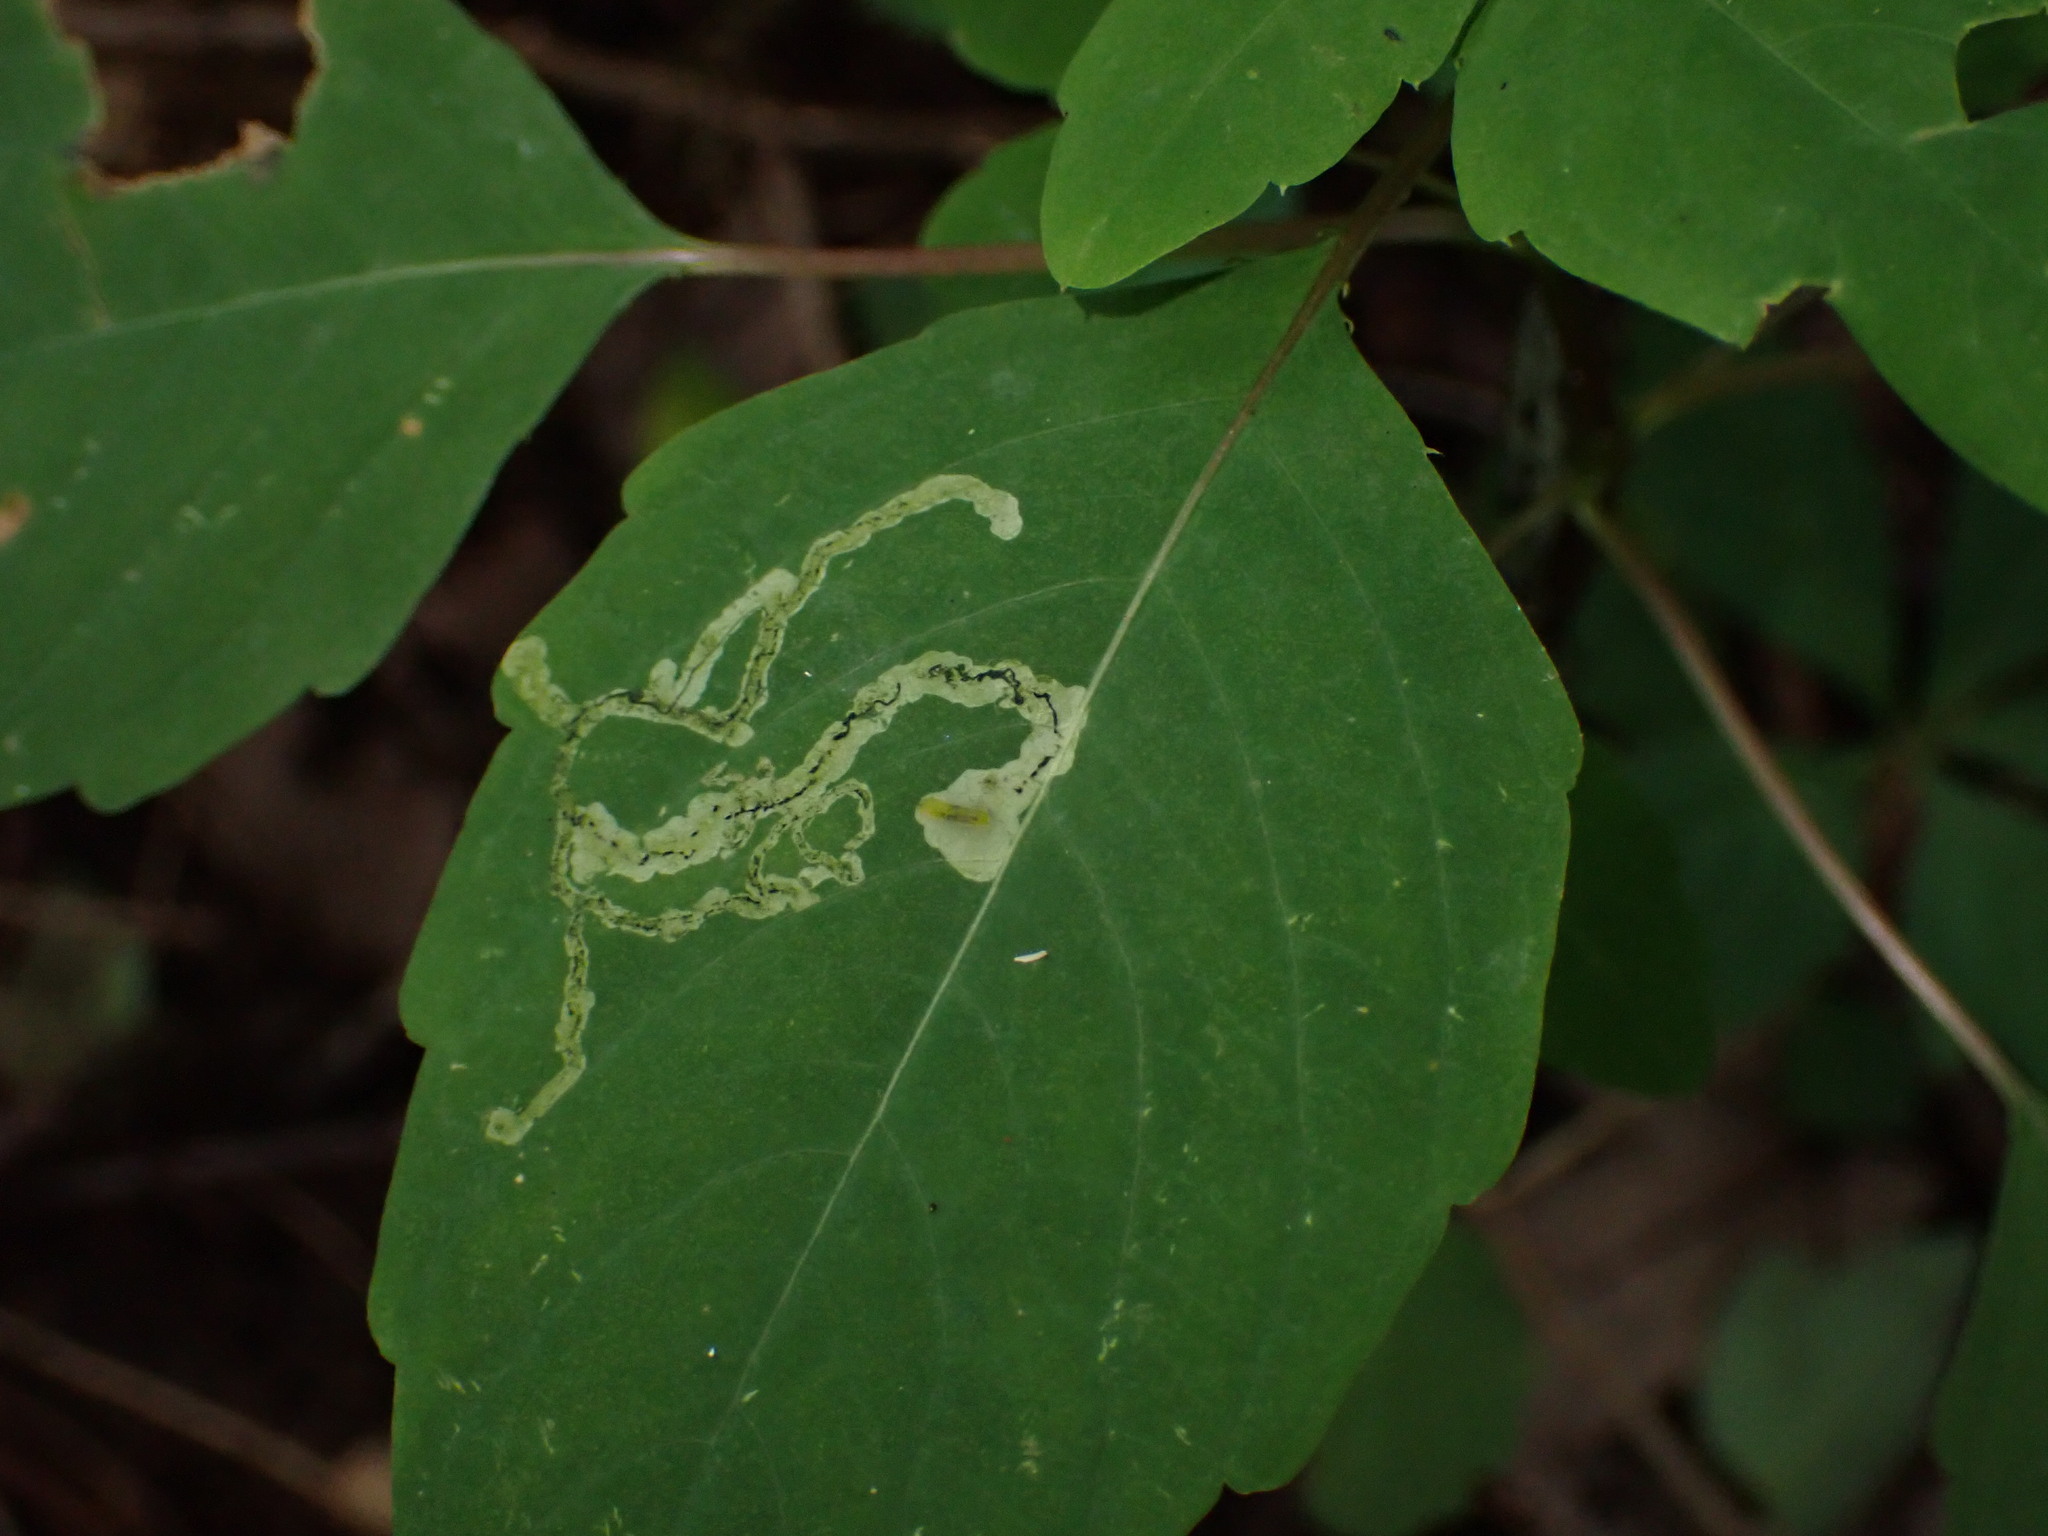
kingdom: Animalia
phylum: Arthropoda
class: Insecta
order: Diptera
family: Agromyzidae
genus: Phytoliriomyza
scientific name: Phytoliriomyza melampyga
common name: Jewelweed leaf-miner fly
